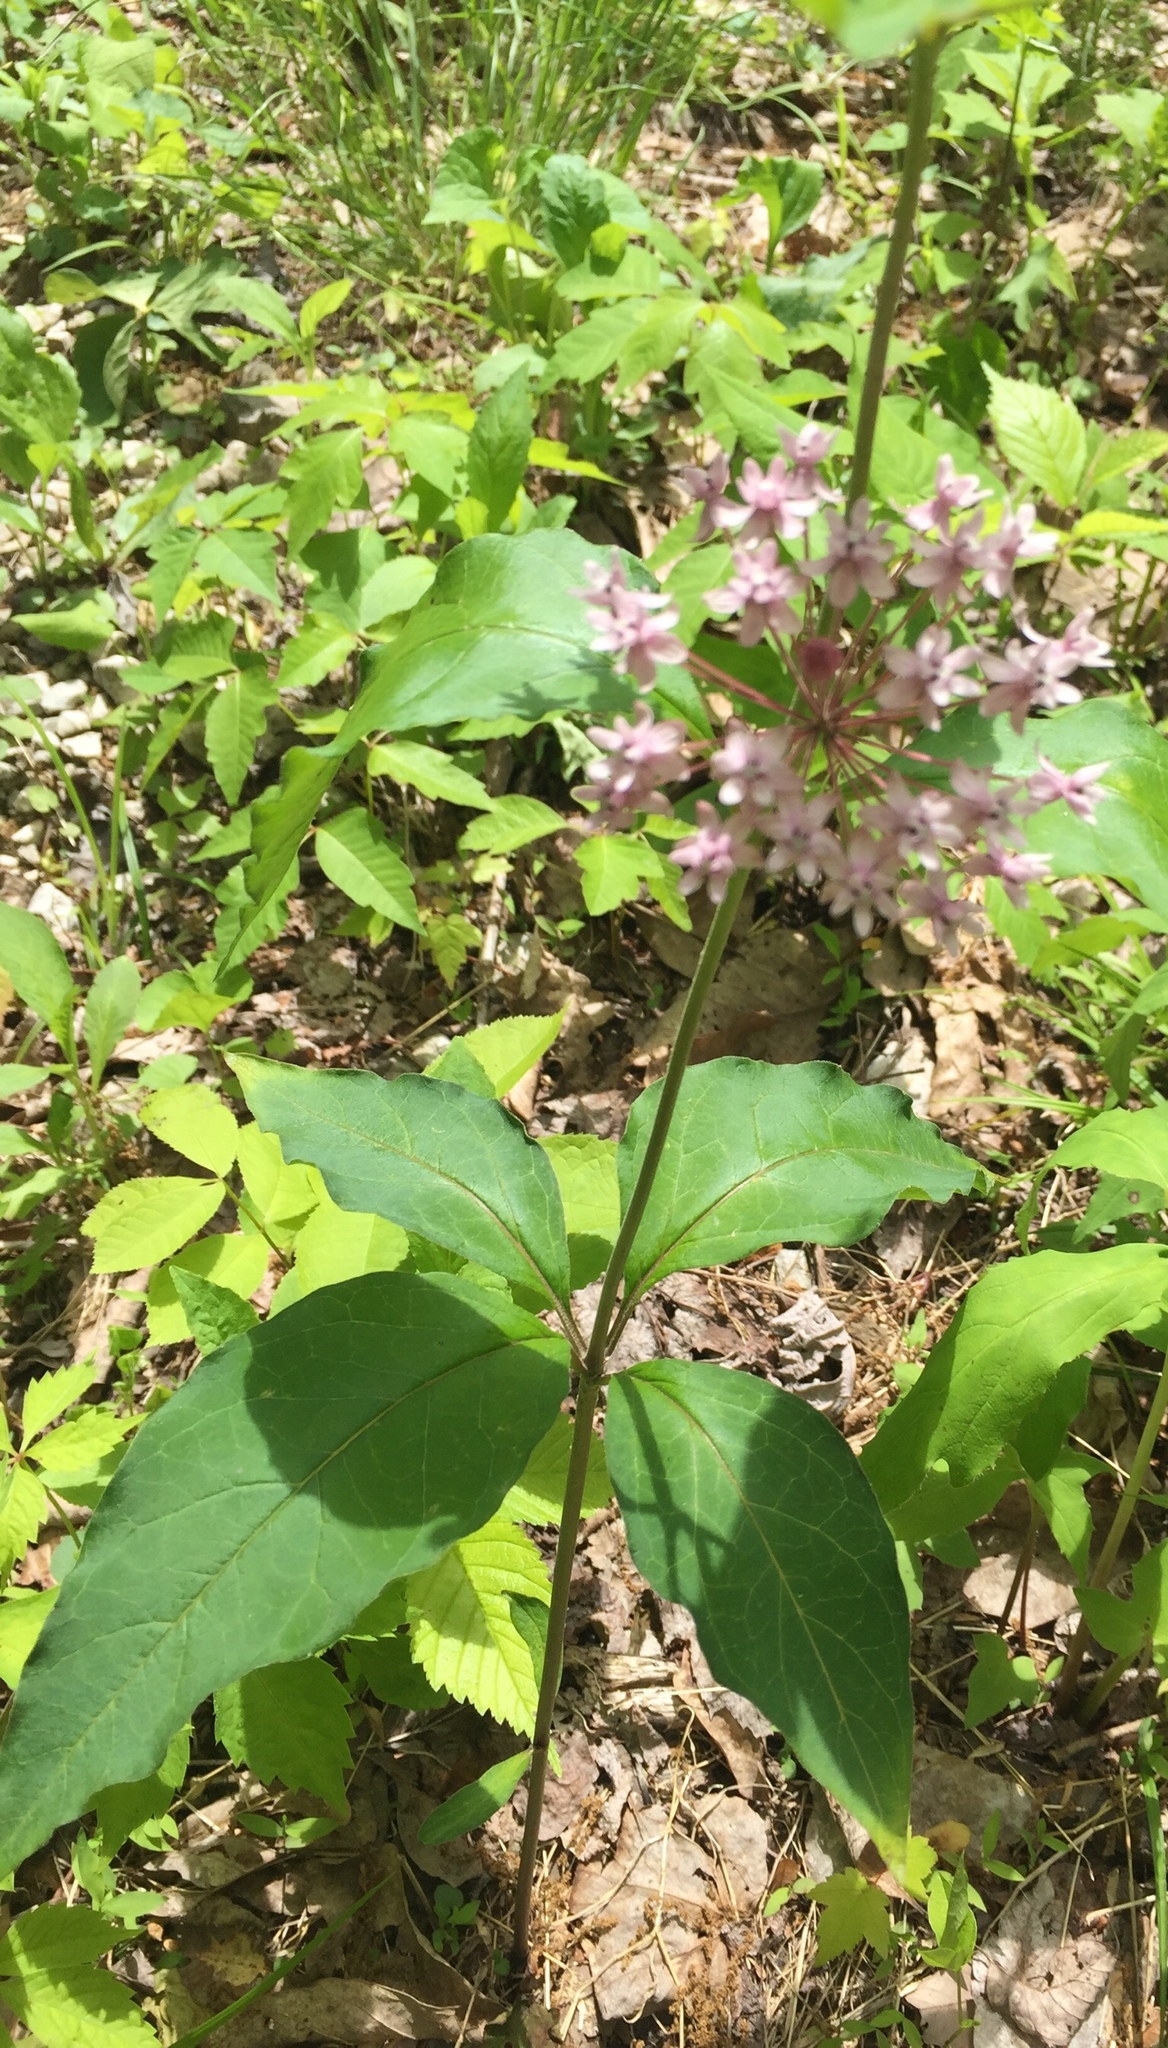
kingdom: Plantae
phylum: Tracheophyta
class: Magnoliopsida
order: Gentianales
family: Apocynaceae
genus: Asclepias
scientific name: Asclepias quadrifolia
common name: Whorled milkweed
